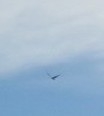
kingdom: Animalia
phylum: Chordata
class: Aves
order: Passeriformes
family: Corvidae
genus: Corvus
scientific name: Corvus corax
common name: Common raven
